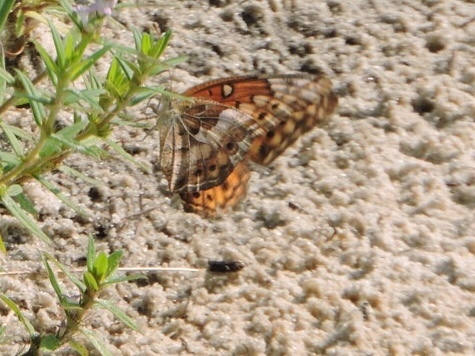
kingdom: Animalia
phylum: Arthropoda
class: Insecta
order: Lepidoptera
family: Nymphalidae
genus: Euptoieta
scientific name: Euptoieta claudia
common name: Variegated fritillary
